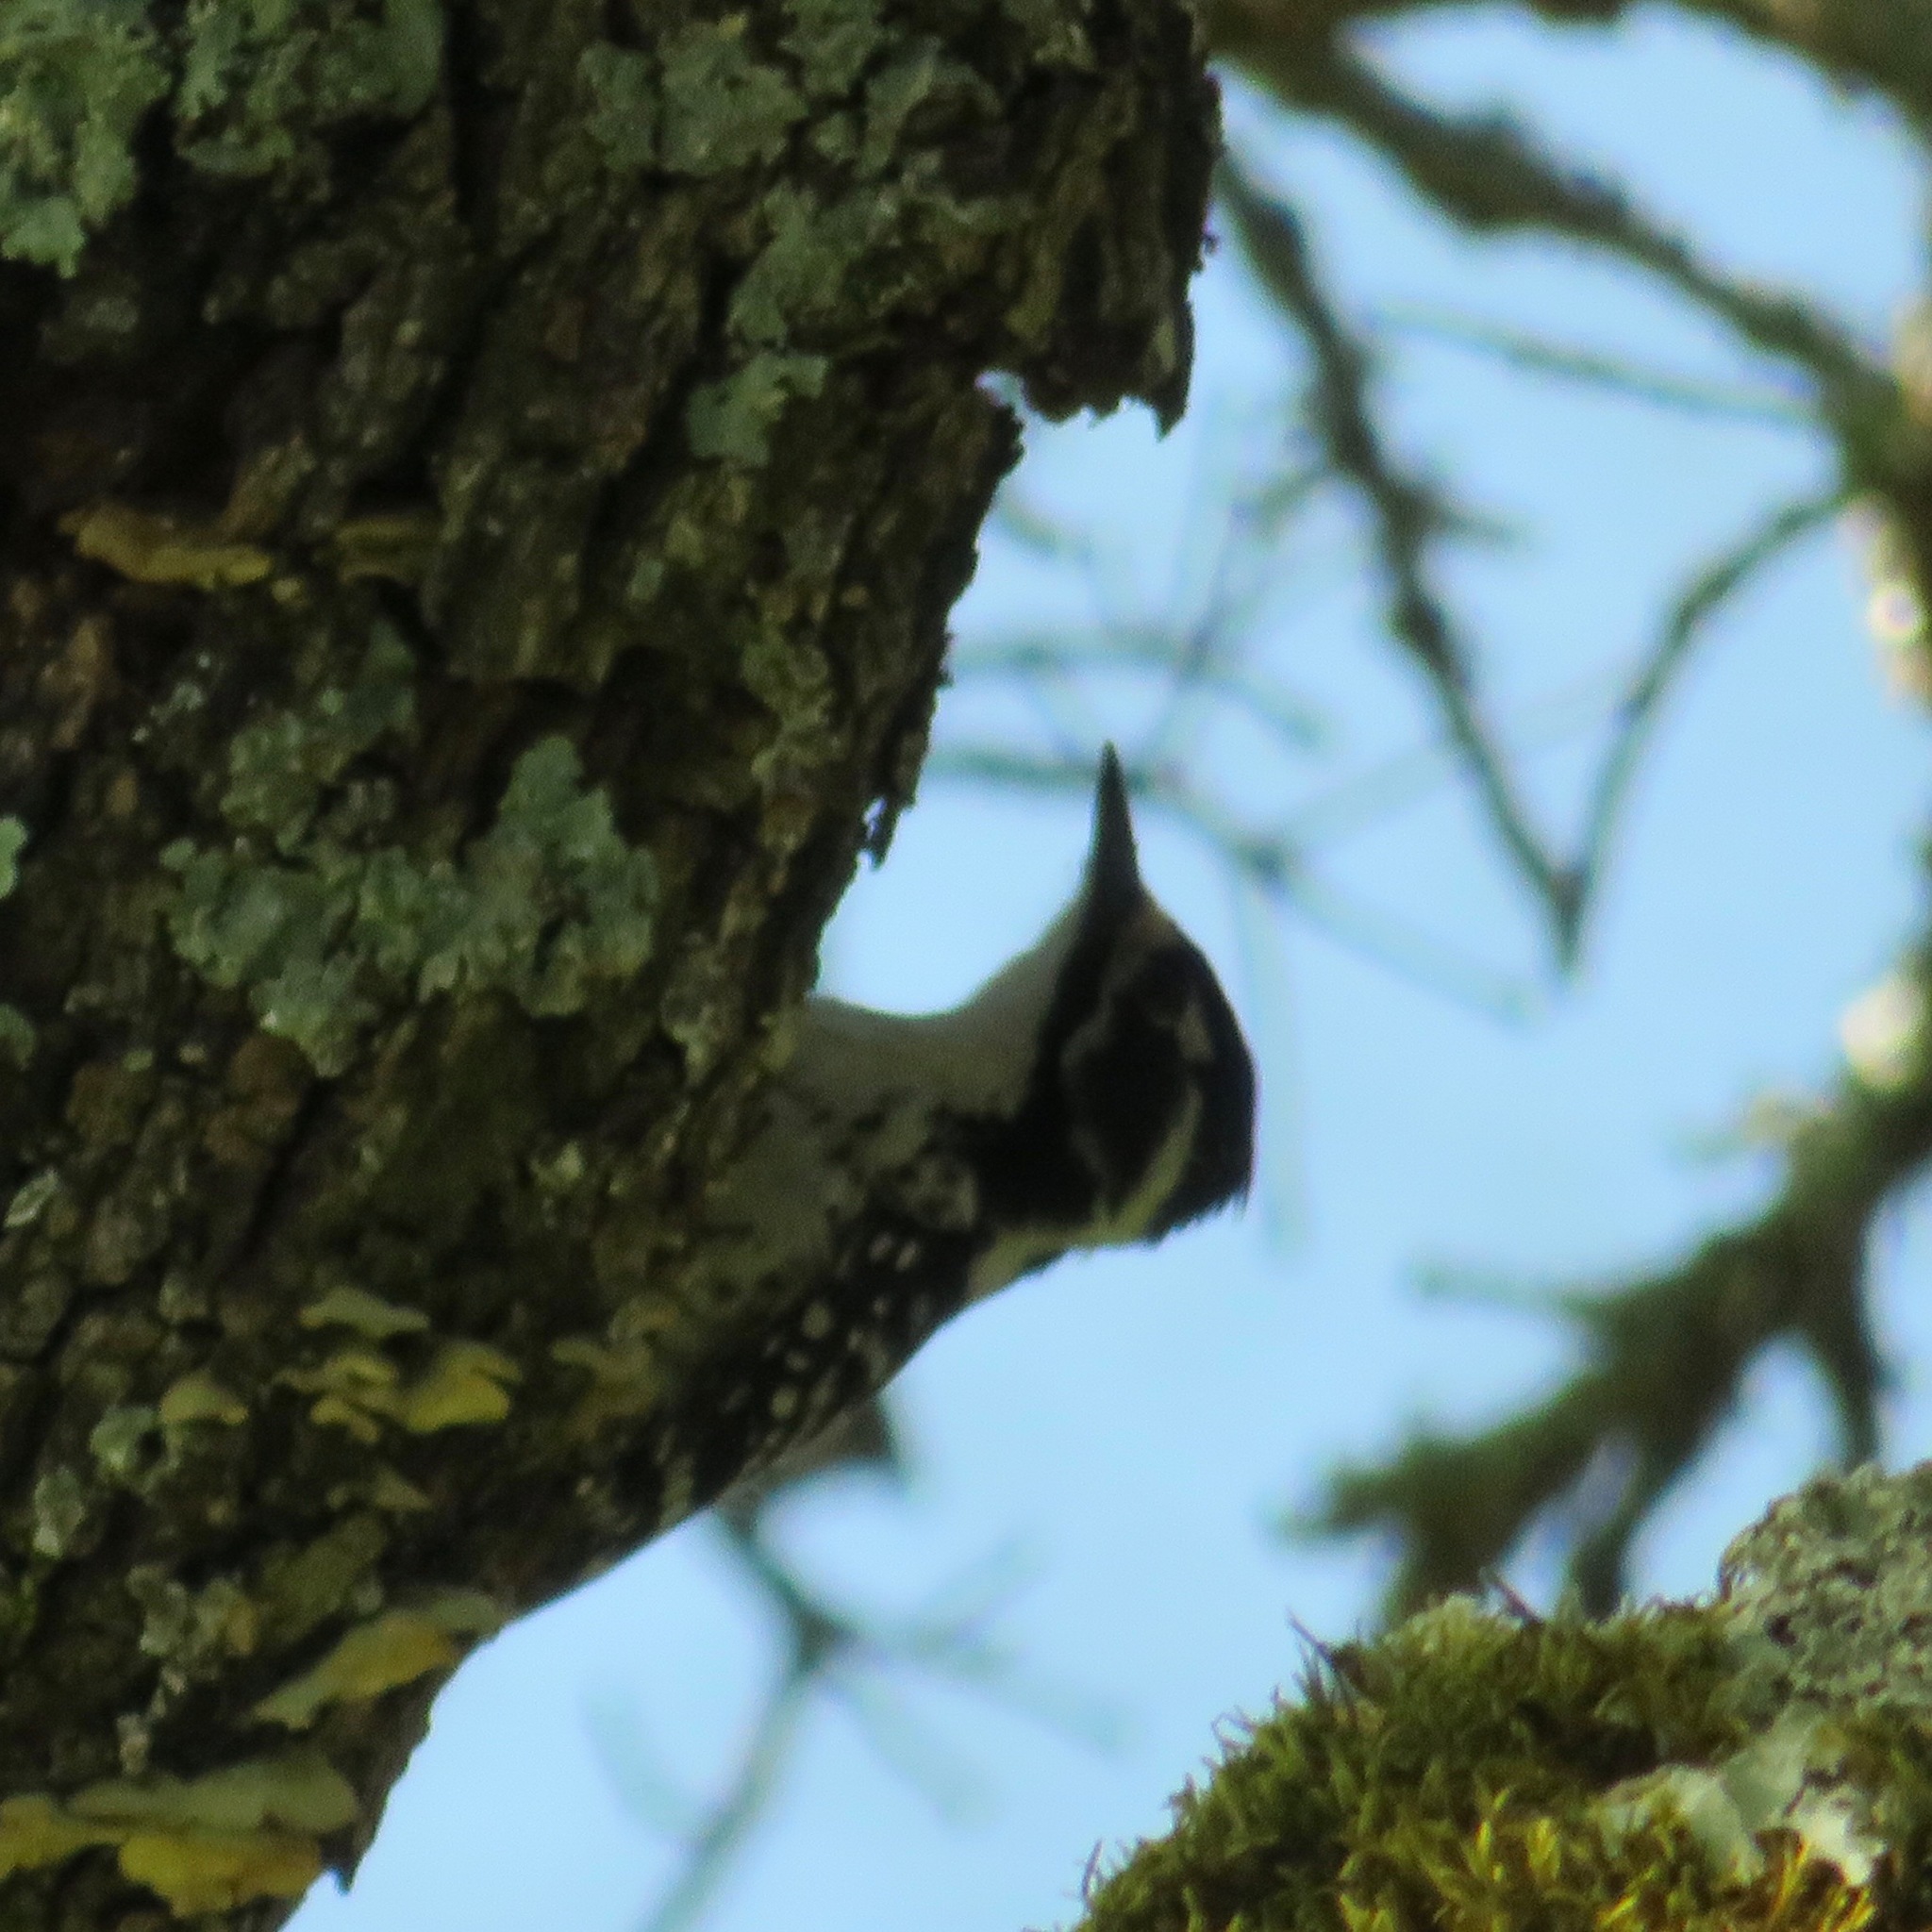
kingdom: Animalia
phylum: Chordata
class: Aves
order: Piciformes
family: Picidae
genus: Dryobates
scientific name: Dryobates nuttallii
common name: Nuttall's woodpecker
